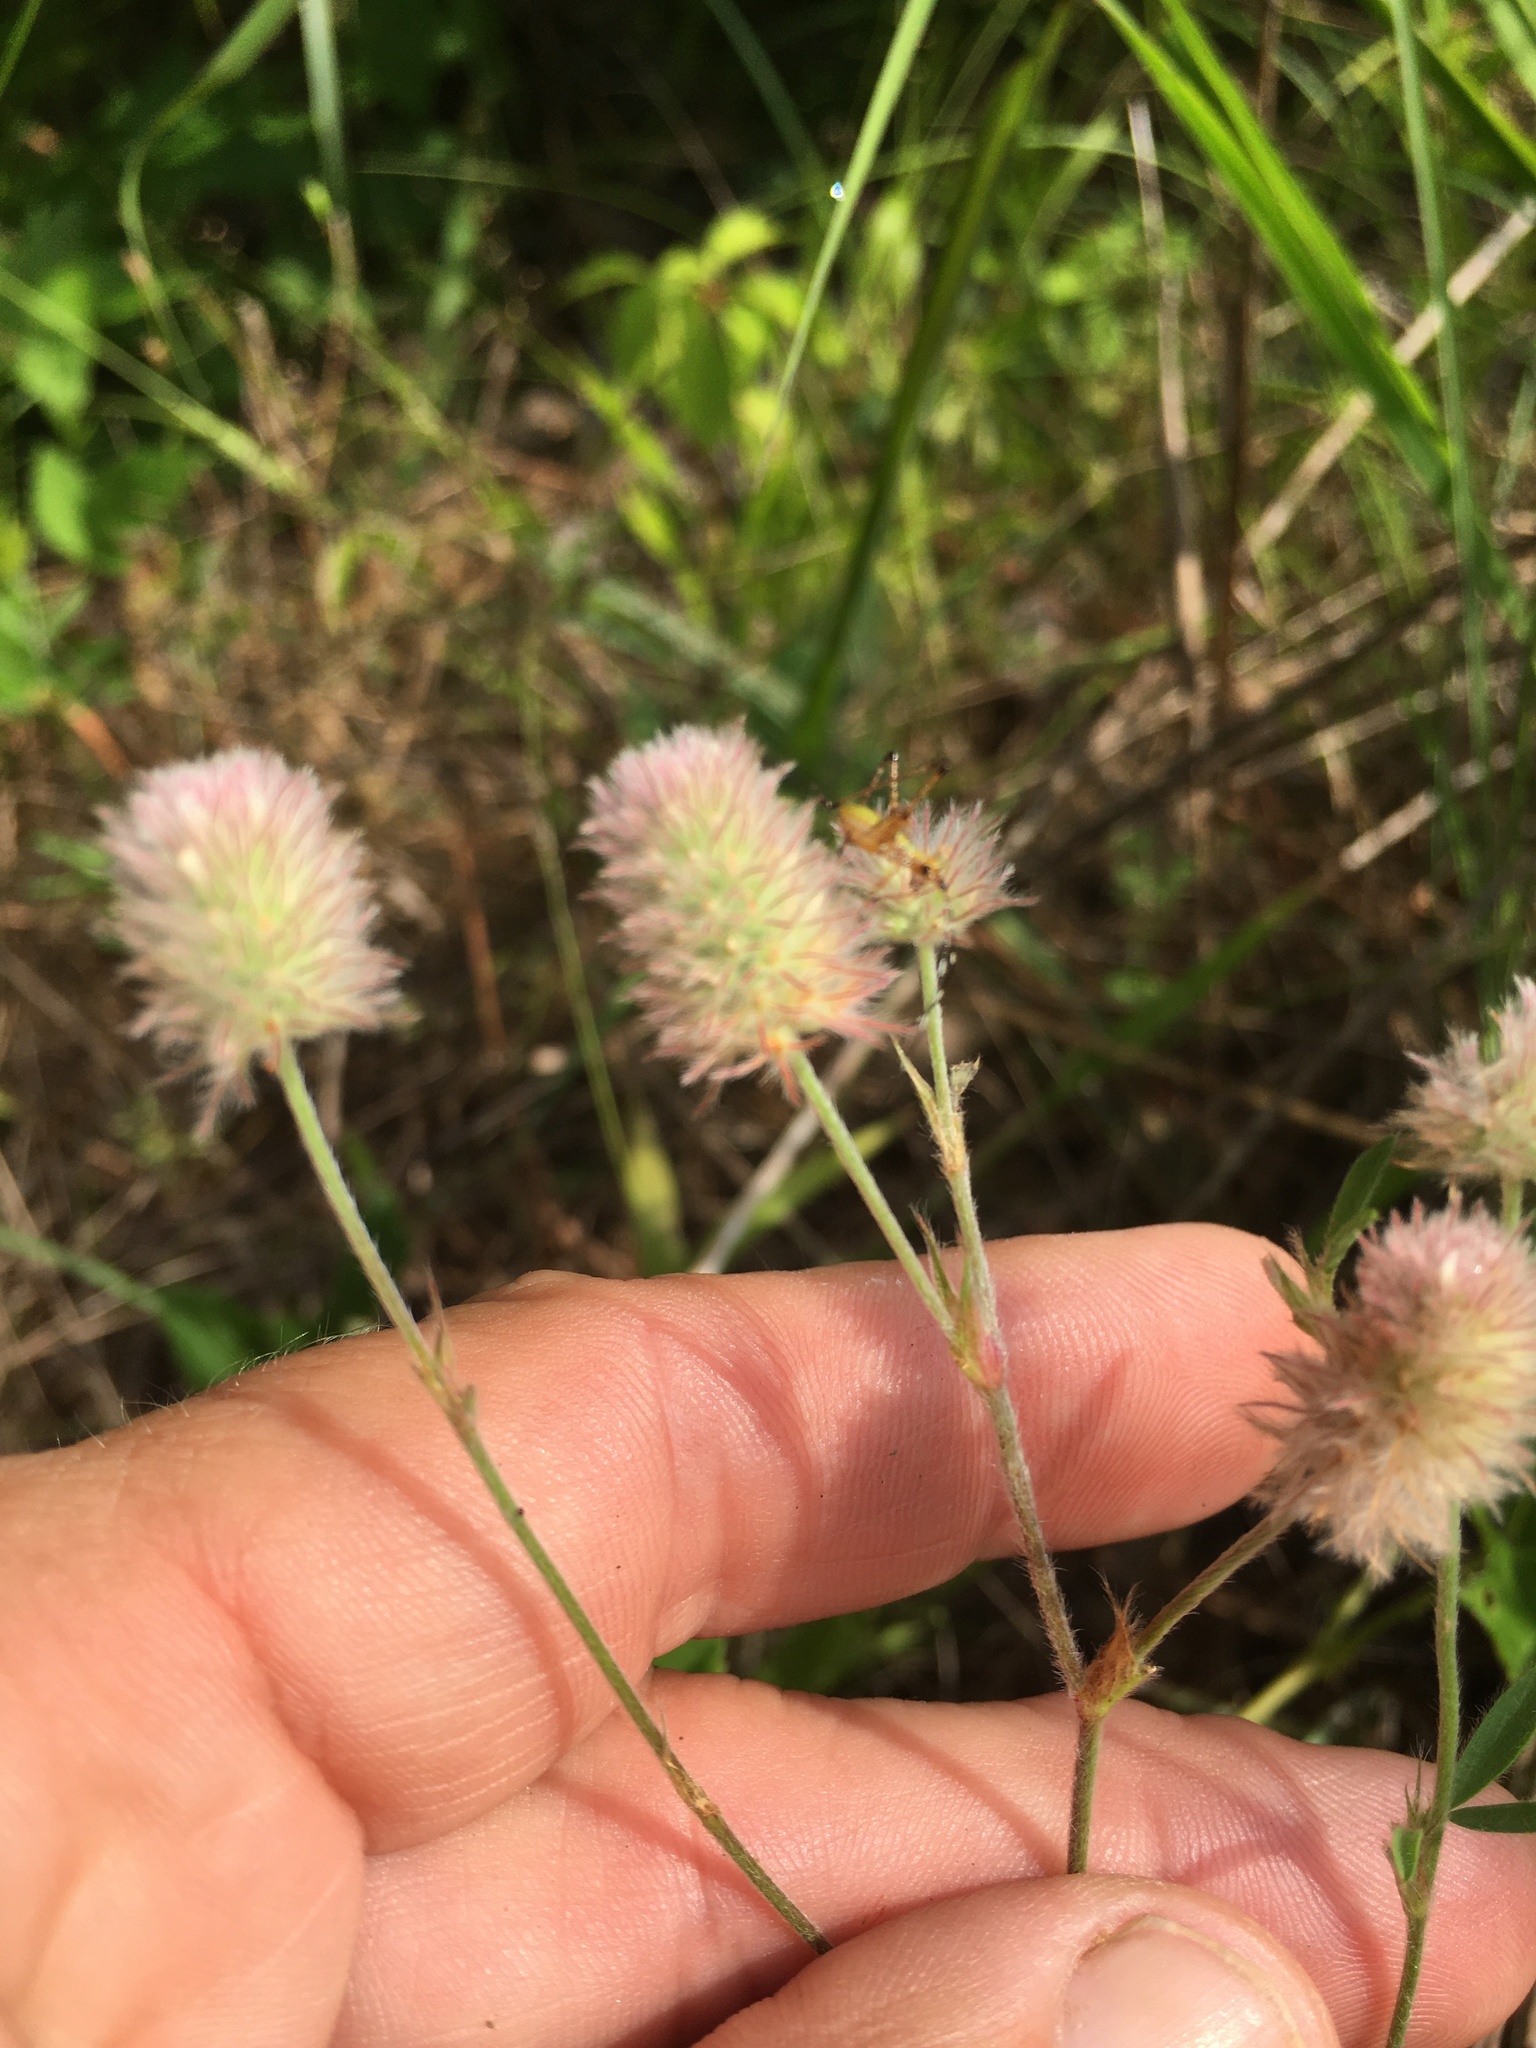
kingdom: Plantae
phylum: Tracheophyta
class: Magnoliopsida
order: Fabales
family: Fabaceae
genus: Trifolium
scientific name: Trifolium arvense
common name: Hare's-foot clover
